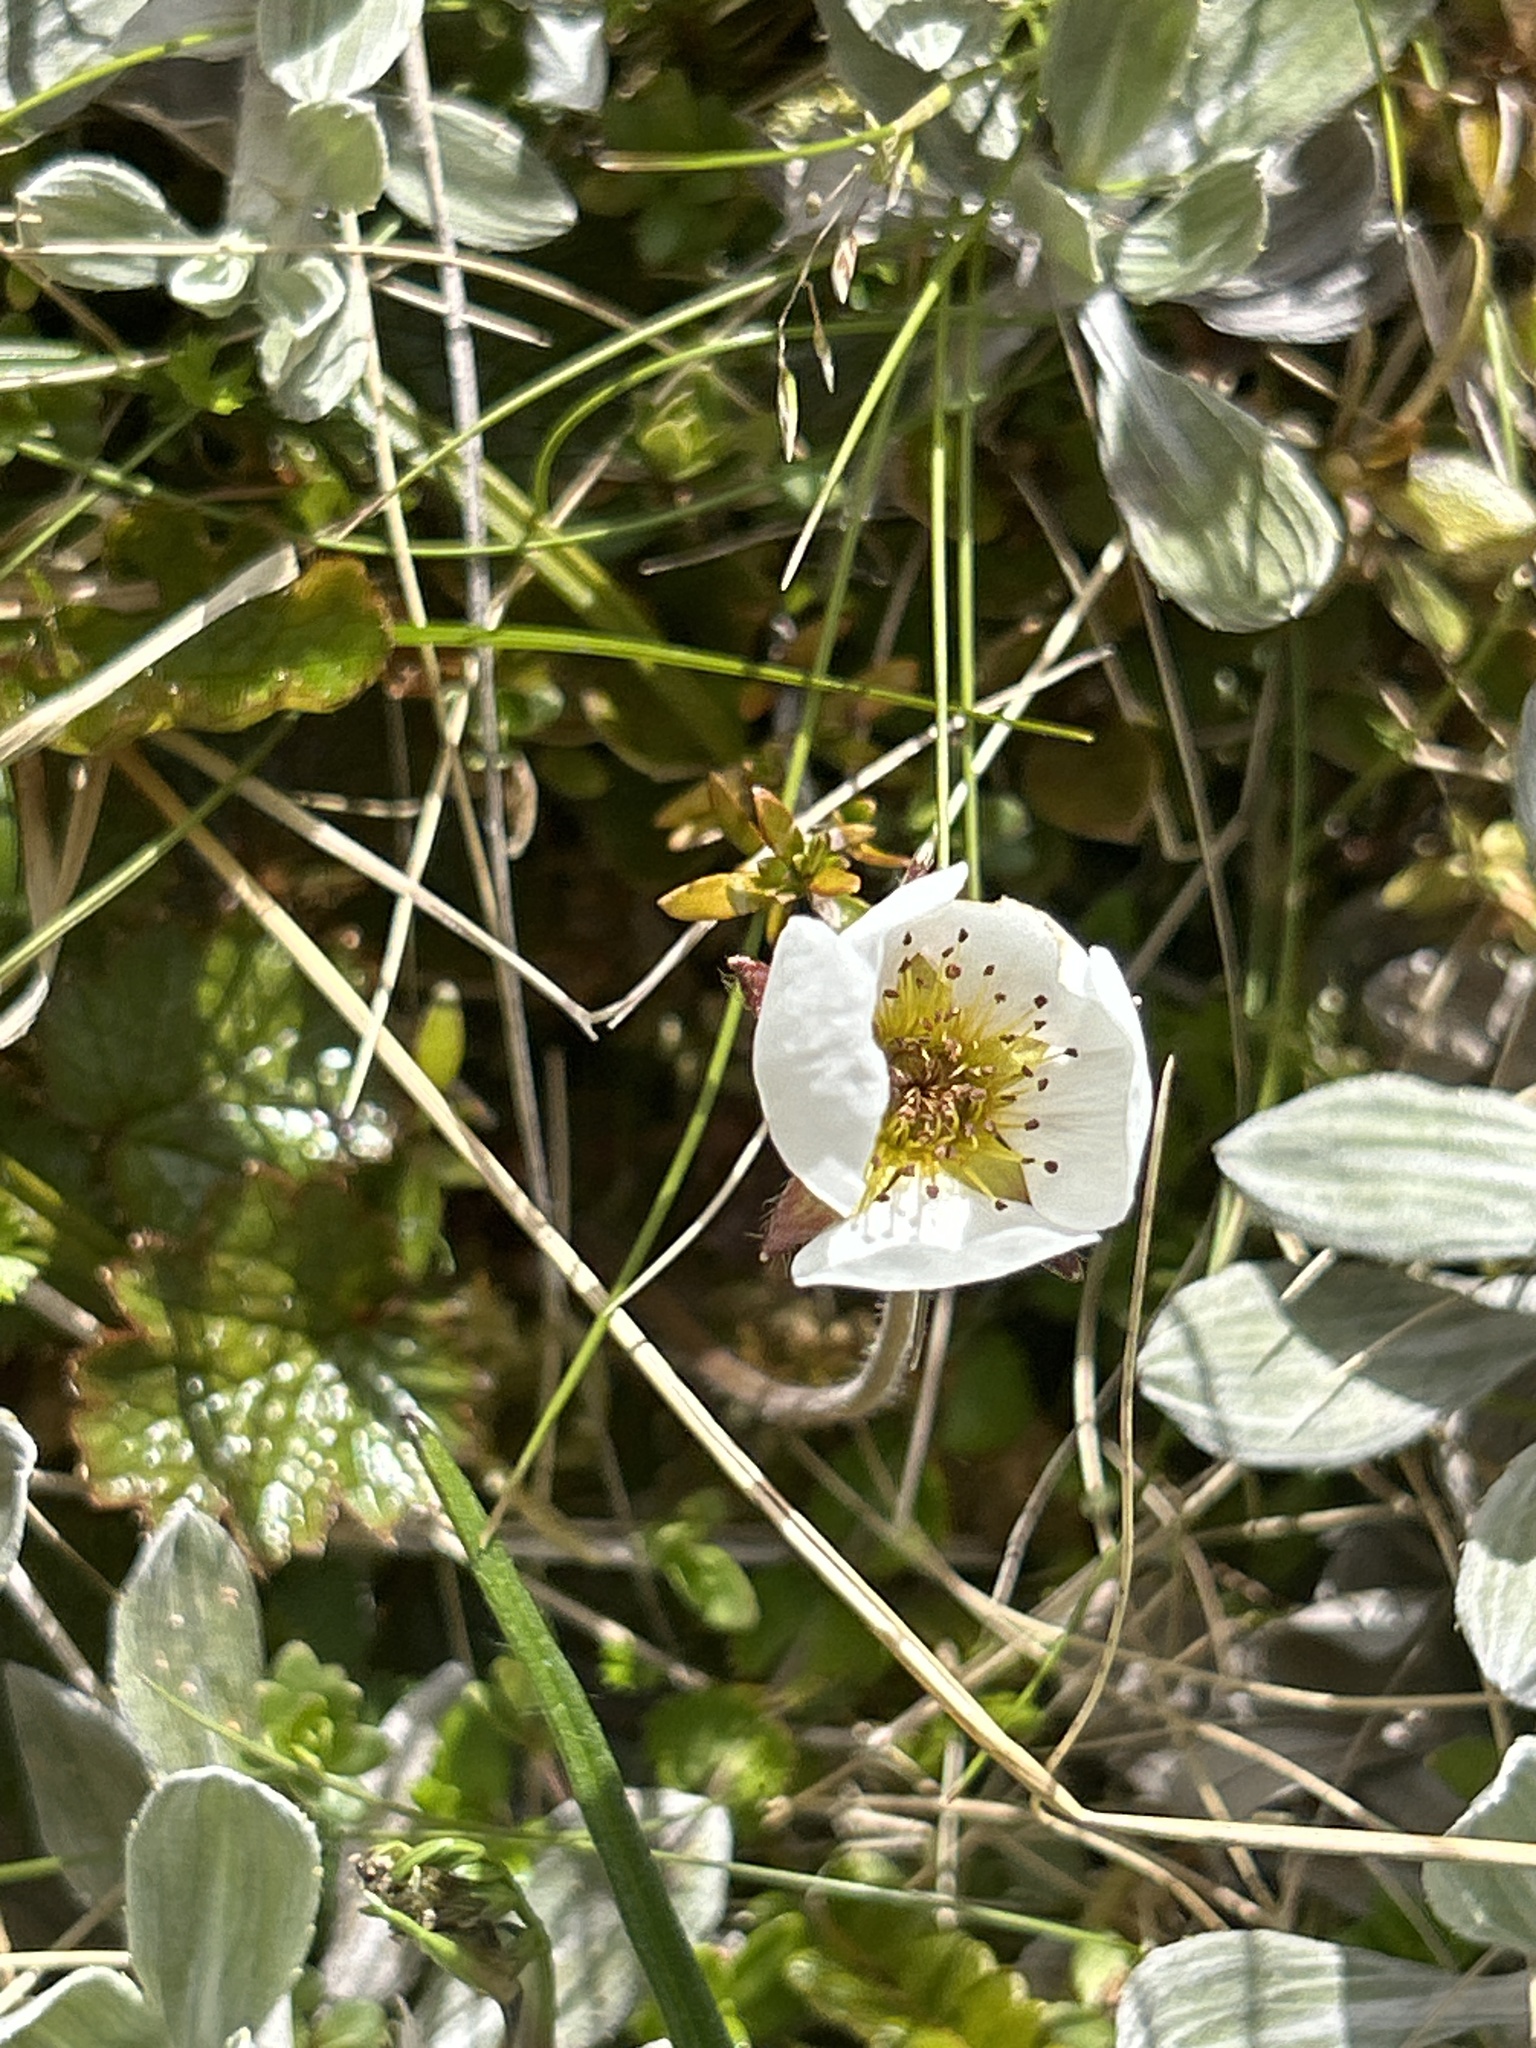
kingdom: Plantae
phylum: Tracheophyta
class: Magnoliopsida
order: Rosales
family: Rosaceae
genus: Geum
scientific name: Geum uniflorum
